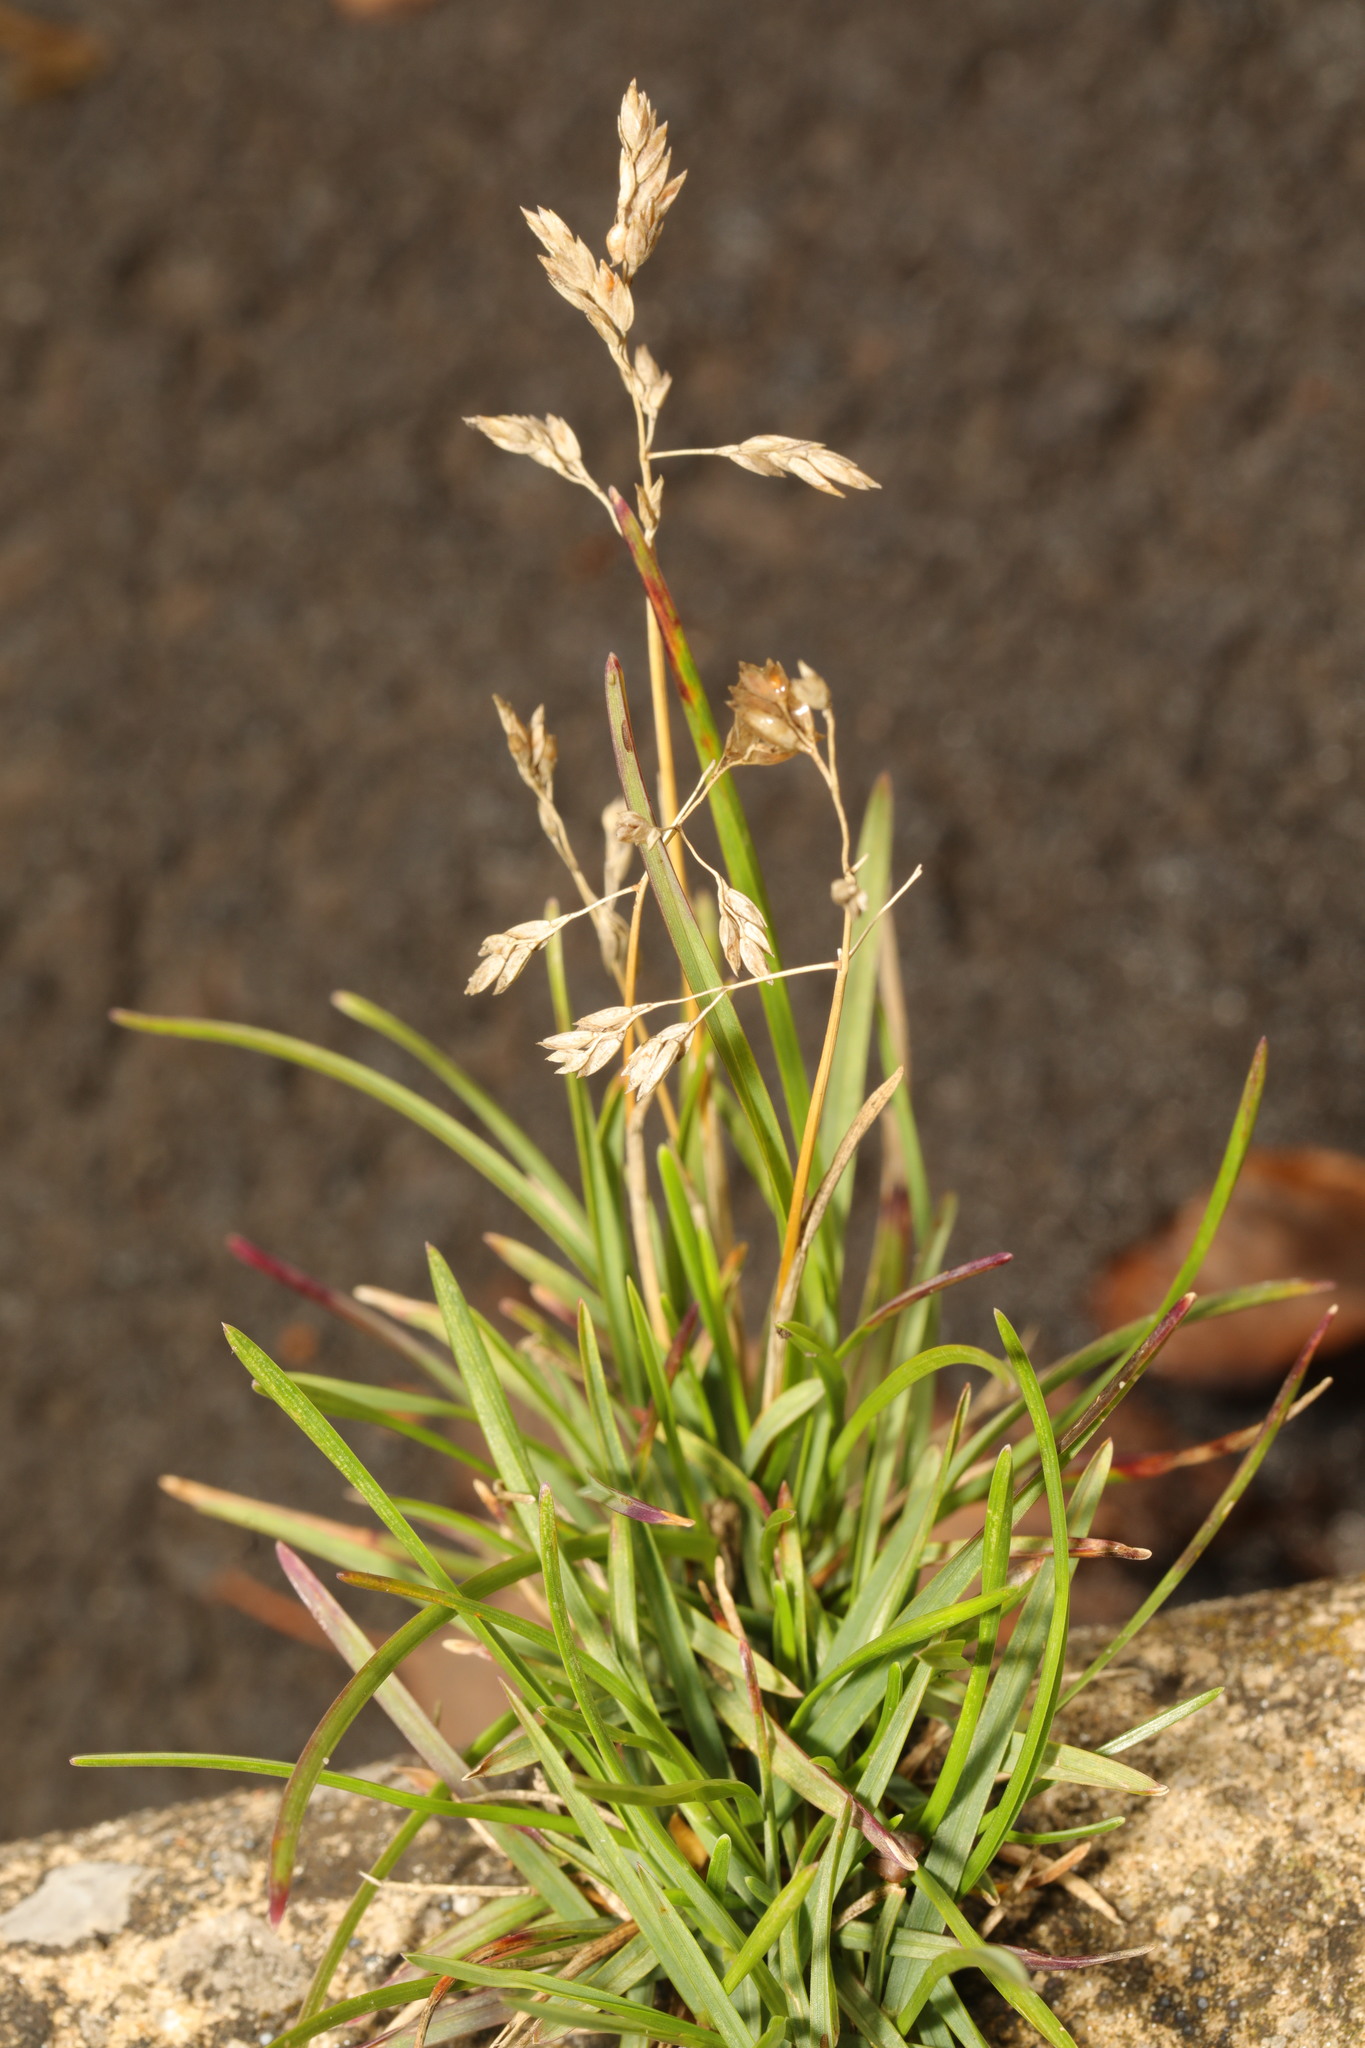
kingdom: Plantae
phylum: Tracheophyta
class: Liliopsida
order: Poales
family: Poaceae
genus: Poa
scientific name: Poa annua
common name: Annual bluegrass
